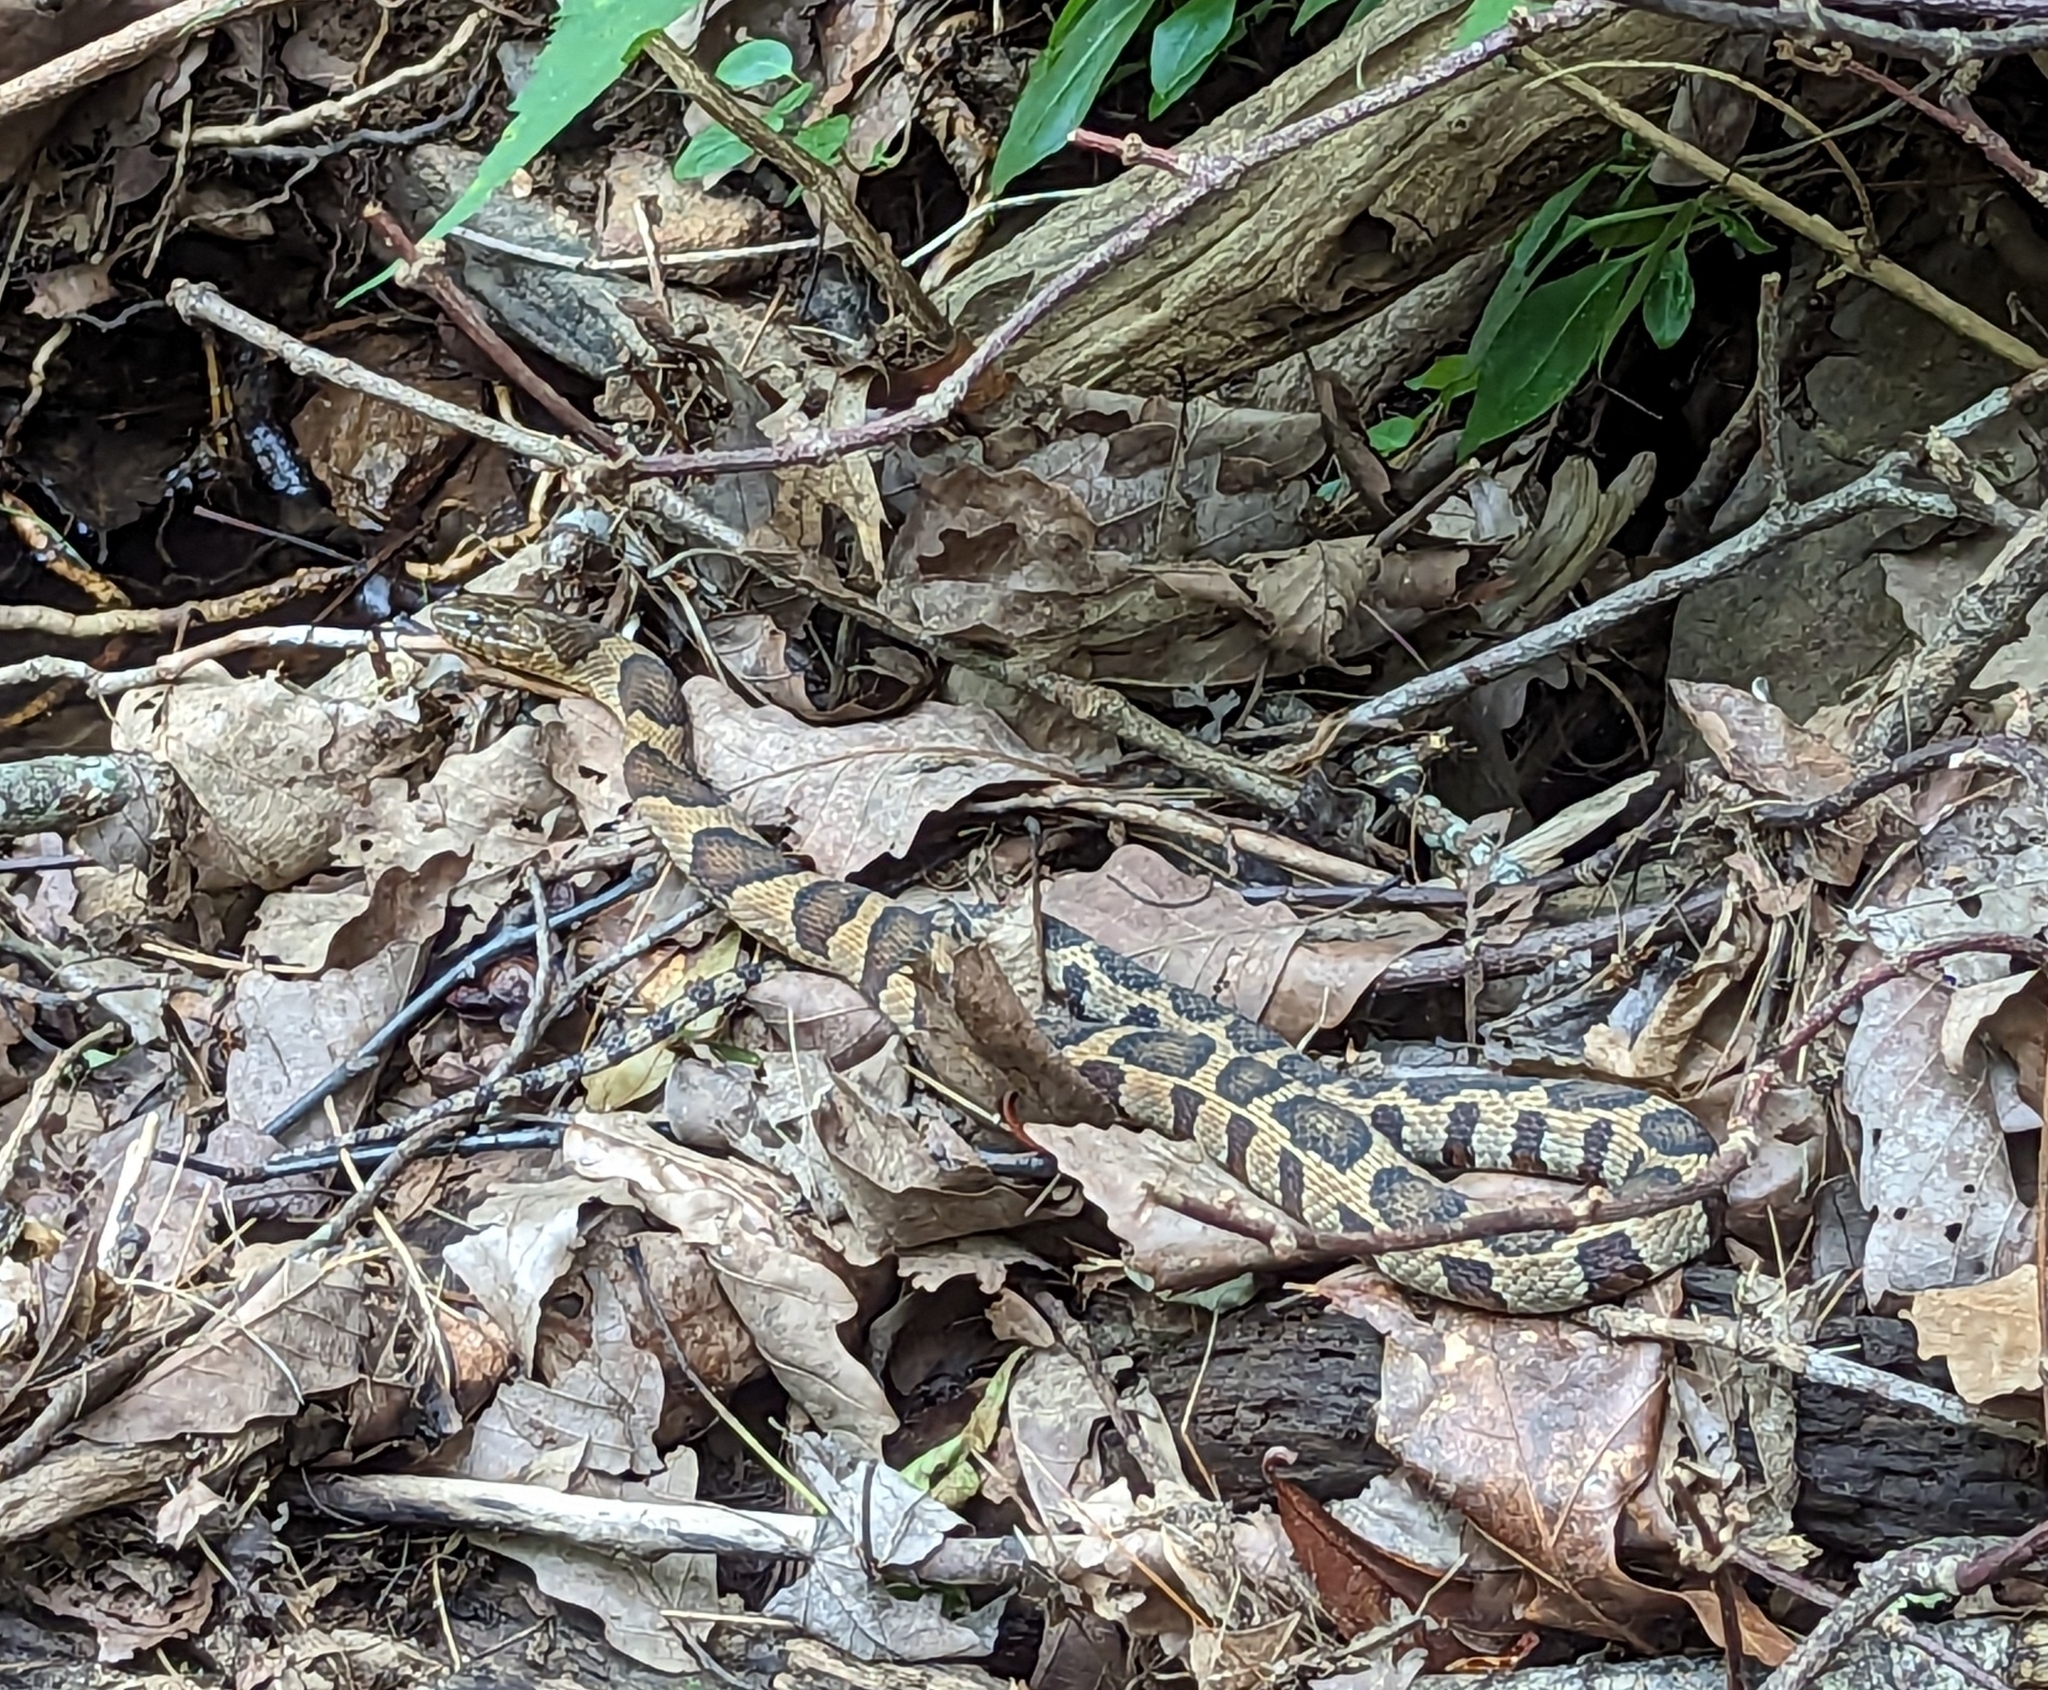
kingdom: Animalia
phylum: Chordata
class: Squamata
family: Colubridae
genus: Nerodia
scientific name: Nerodia sipedon
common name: Northern water snake
